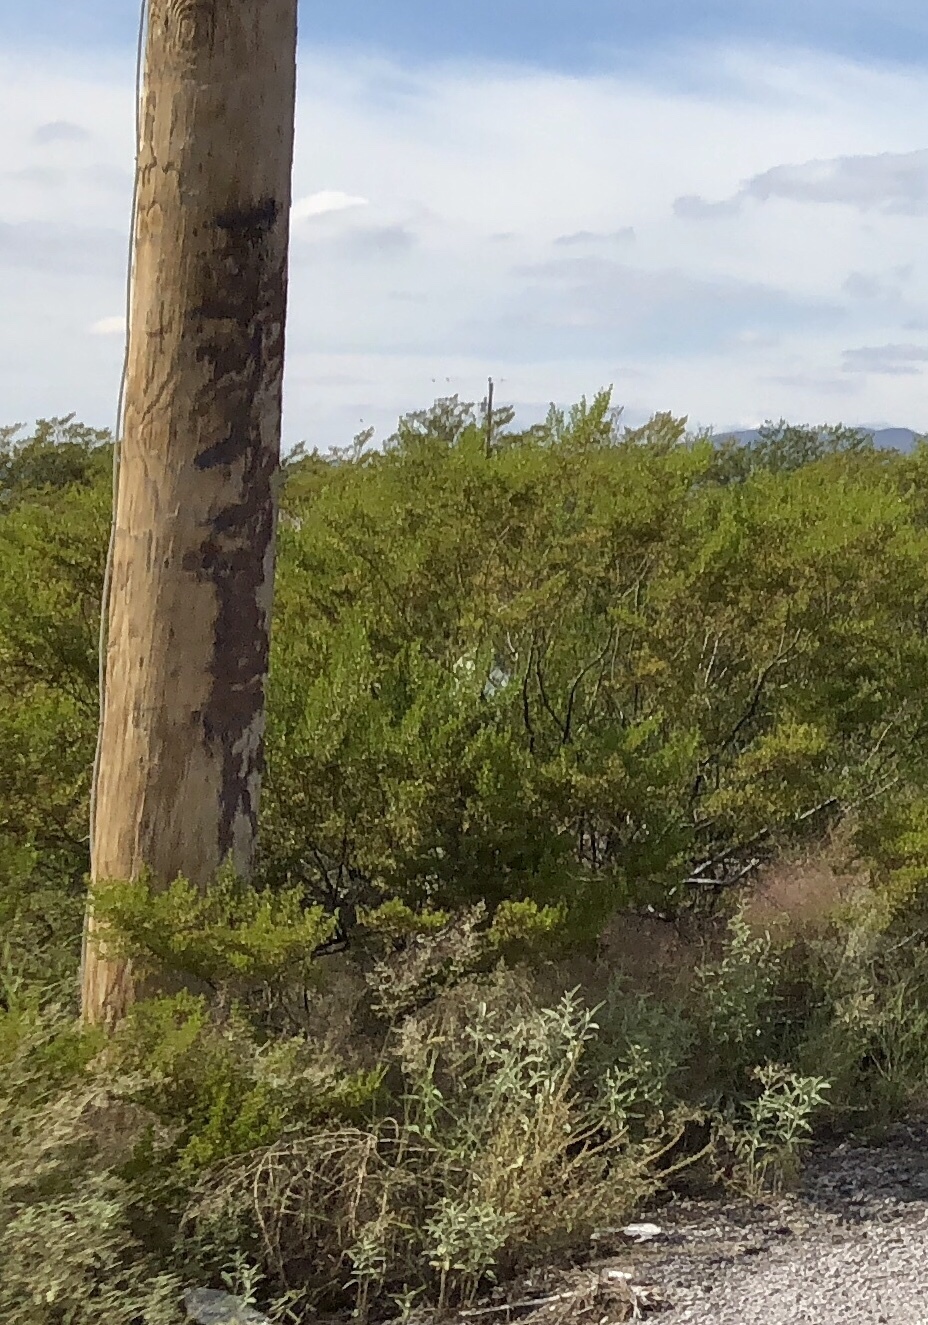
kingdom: Plantae
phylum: Tracheophyta
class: Magnoliopsida
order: Zygophyllales
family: Zygophyllaceae
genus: Larrea
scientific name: Larrea tridentata
